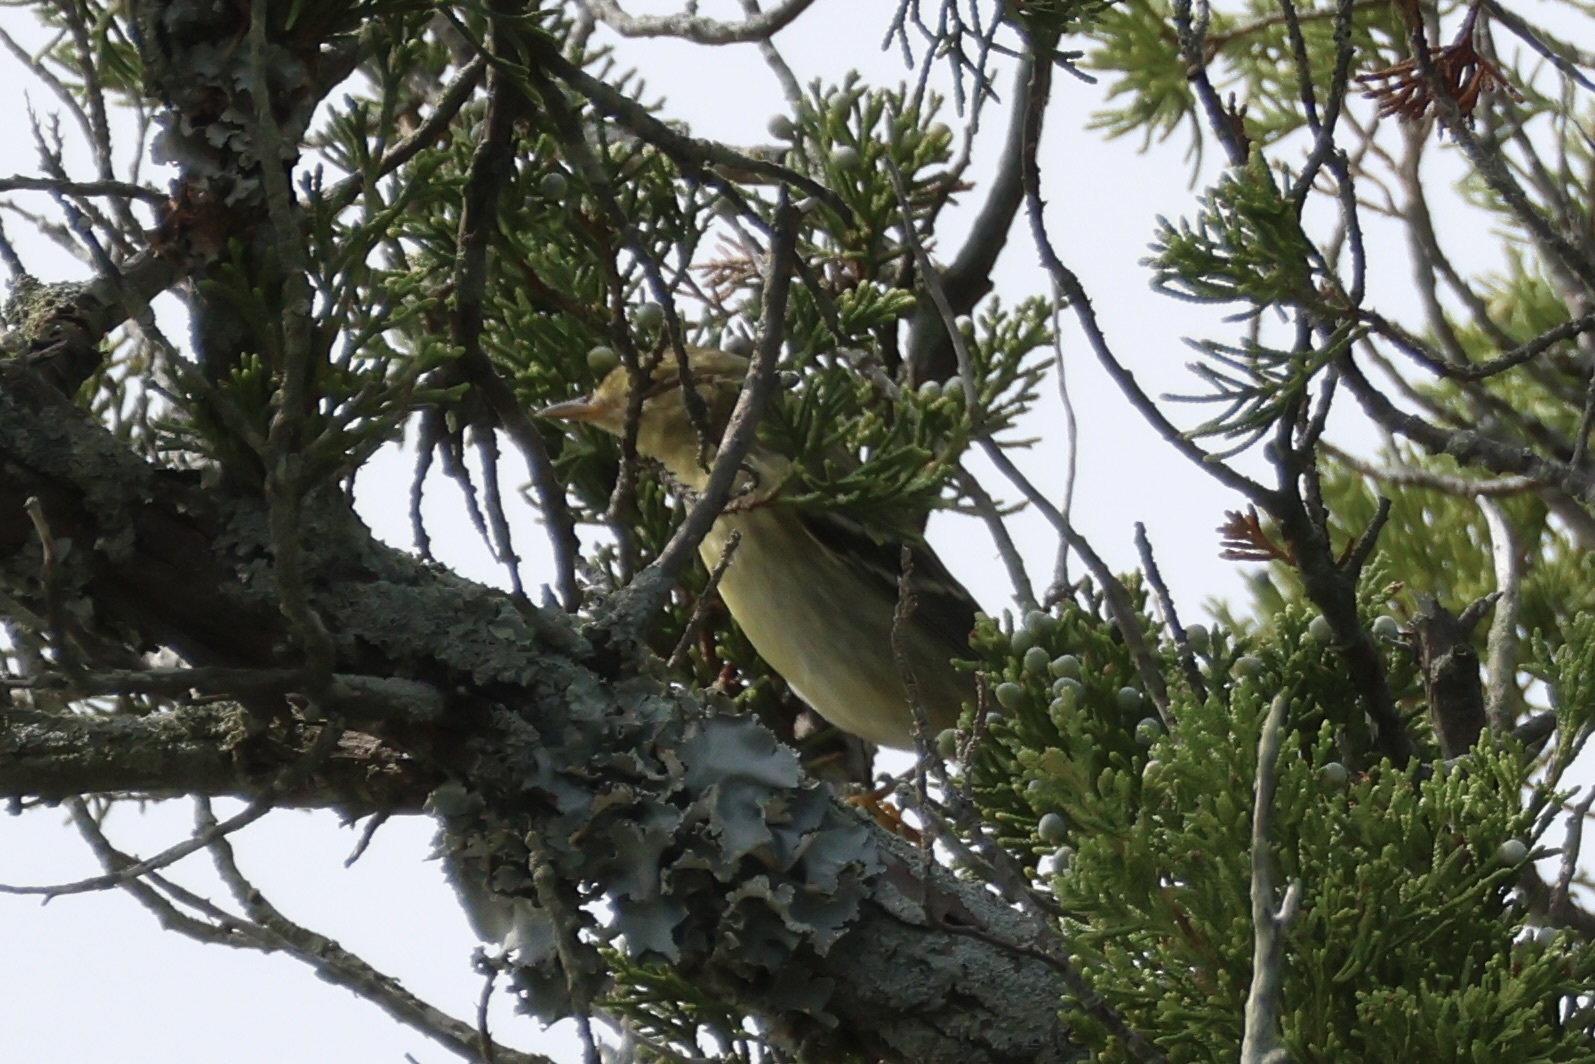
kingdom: Animalia
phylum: Chordata
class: Aves
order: Passeriformes
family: Parulidae
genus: Setophaga
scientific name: Setophaga striata
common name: Blackpoll warbler
